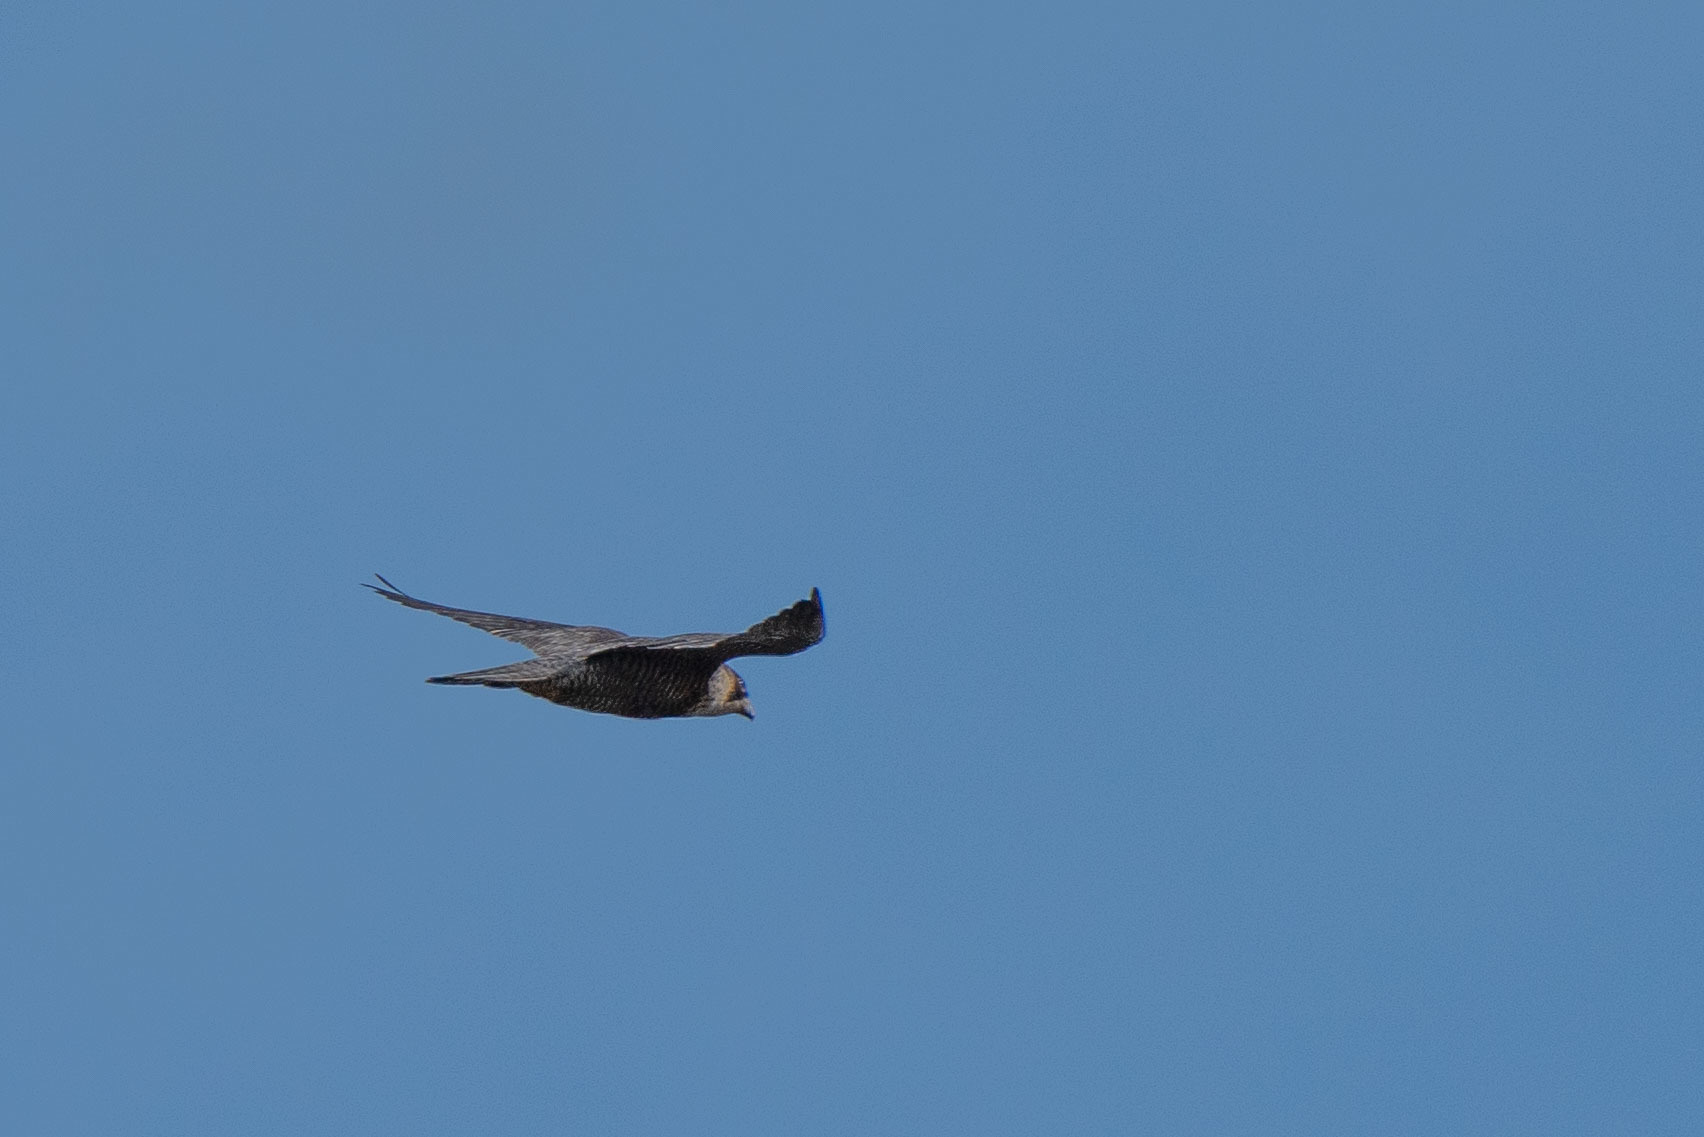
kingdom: Animalia
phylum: Chordata
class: Aves
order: Falconiformes
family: Falconidae
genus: Falco
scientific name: Falco peregrinus
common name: Peregrine falcon
